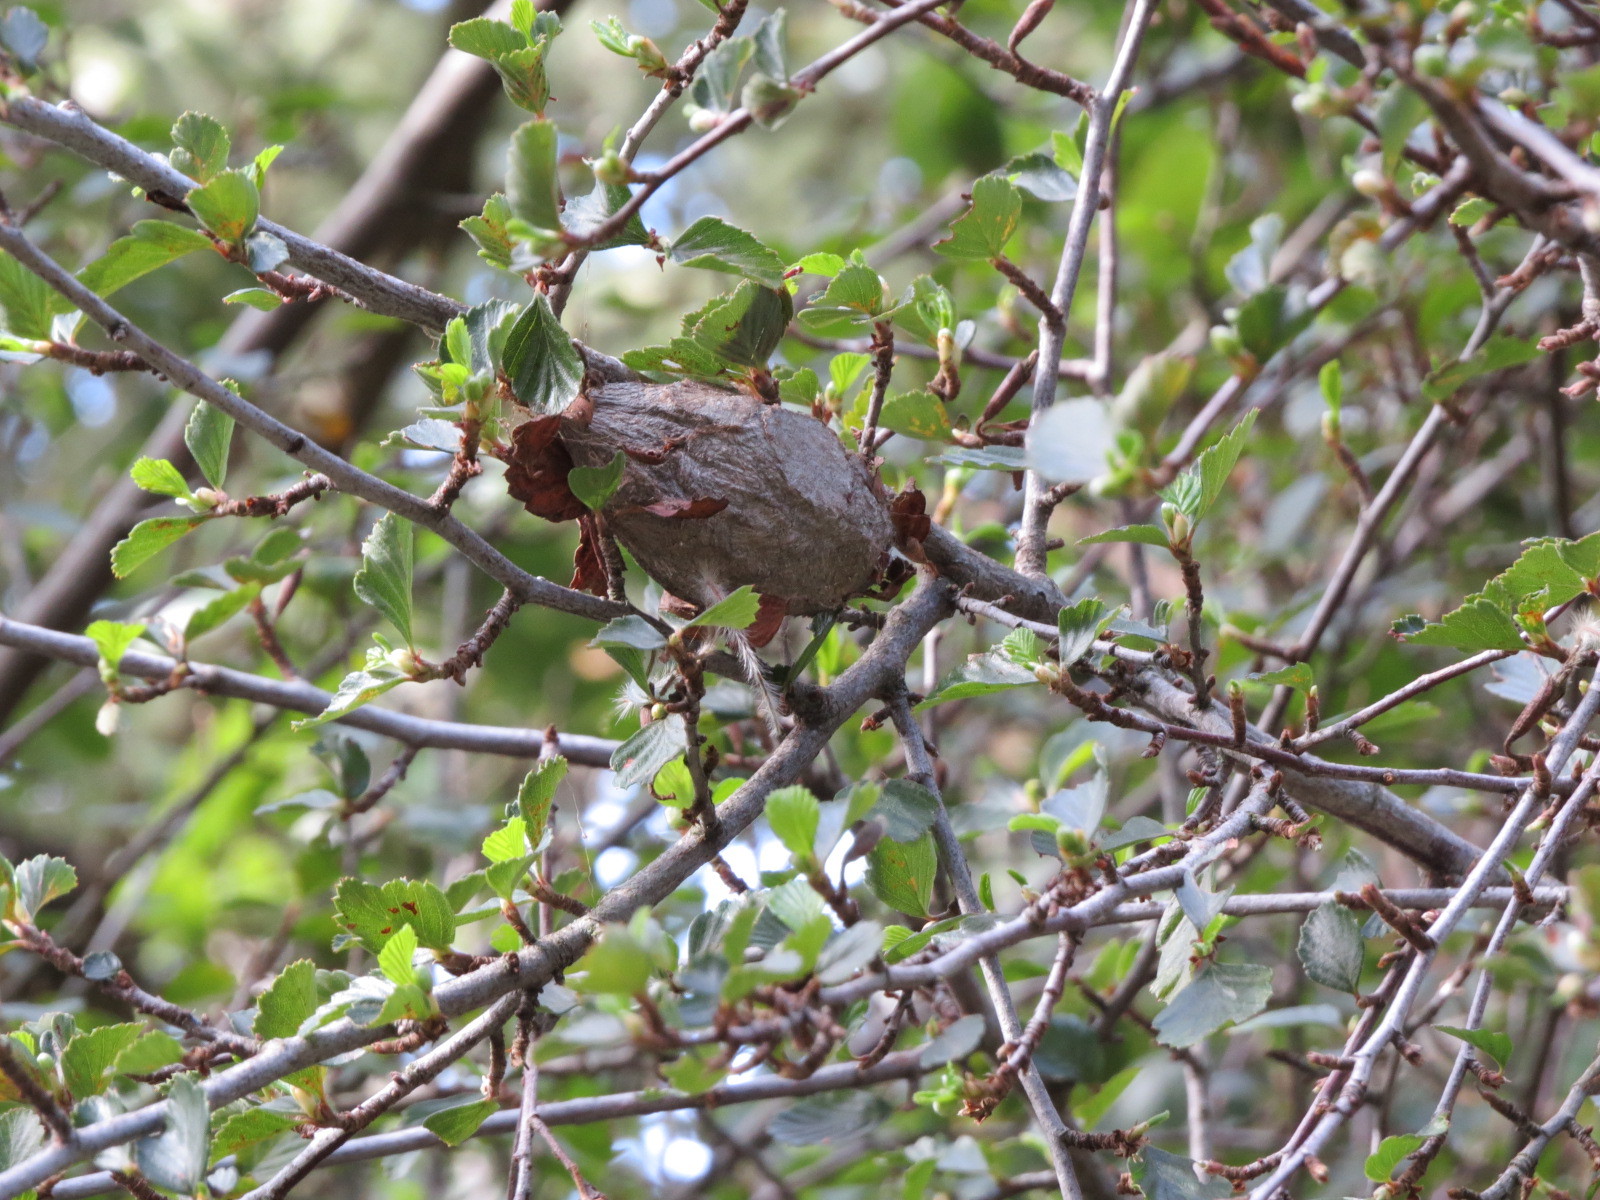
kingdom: Animalia
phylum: Arthropoda
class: Insecta
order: Lepidoptera
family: Saturniidae
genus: Hyalophora
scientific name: Hyalophora euryalus
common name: Ceanothus silkmoth
